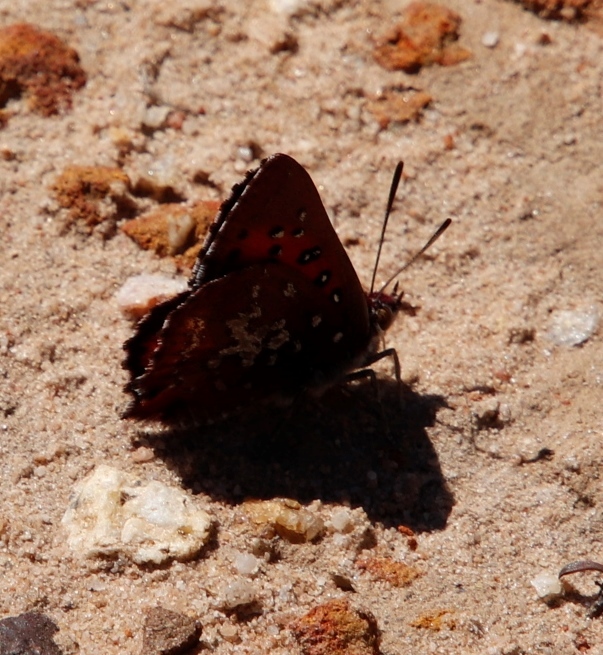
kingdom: Animalia
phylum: Arthropoda
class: Insecta
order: Lepidoptera
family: Lycaenidae
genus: Aloeides
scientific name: Aloeides thyra
